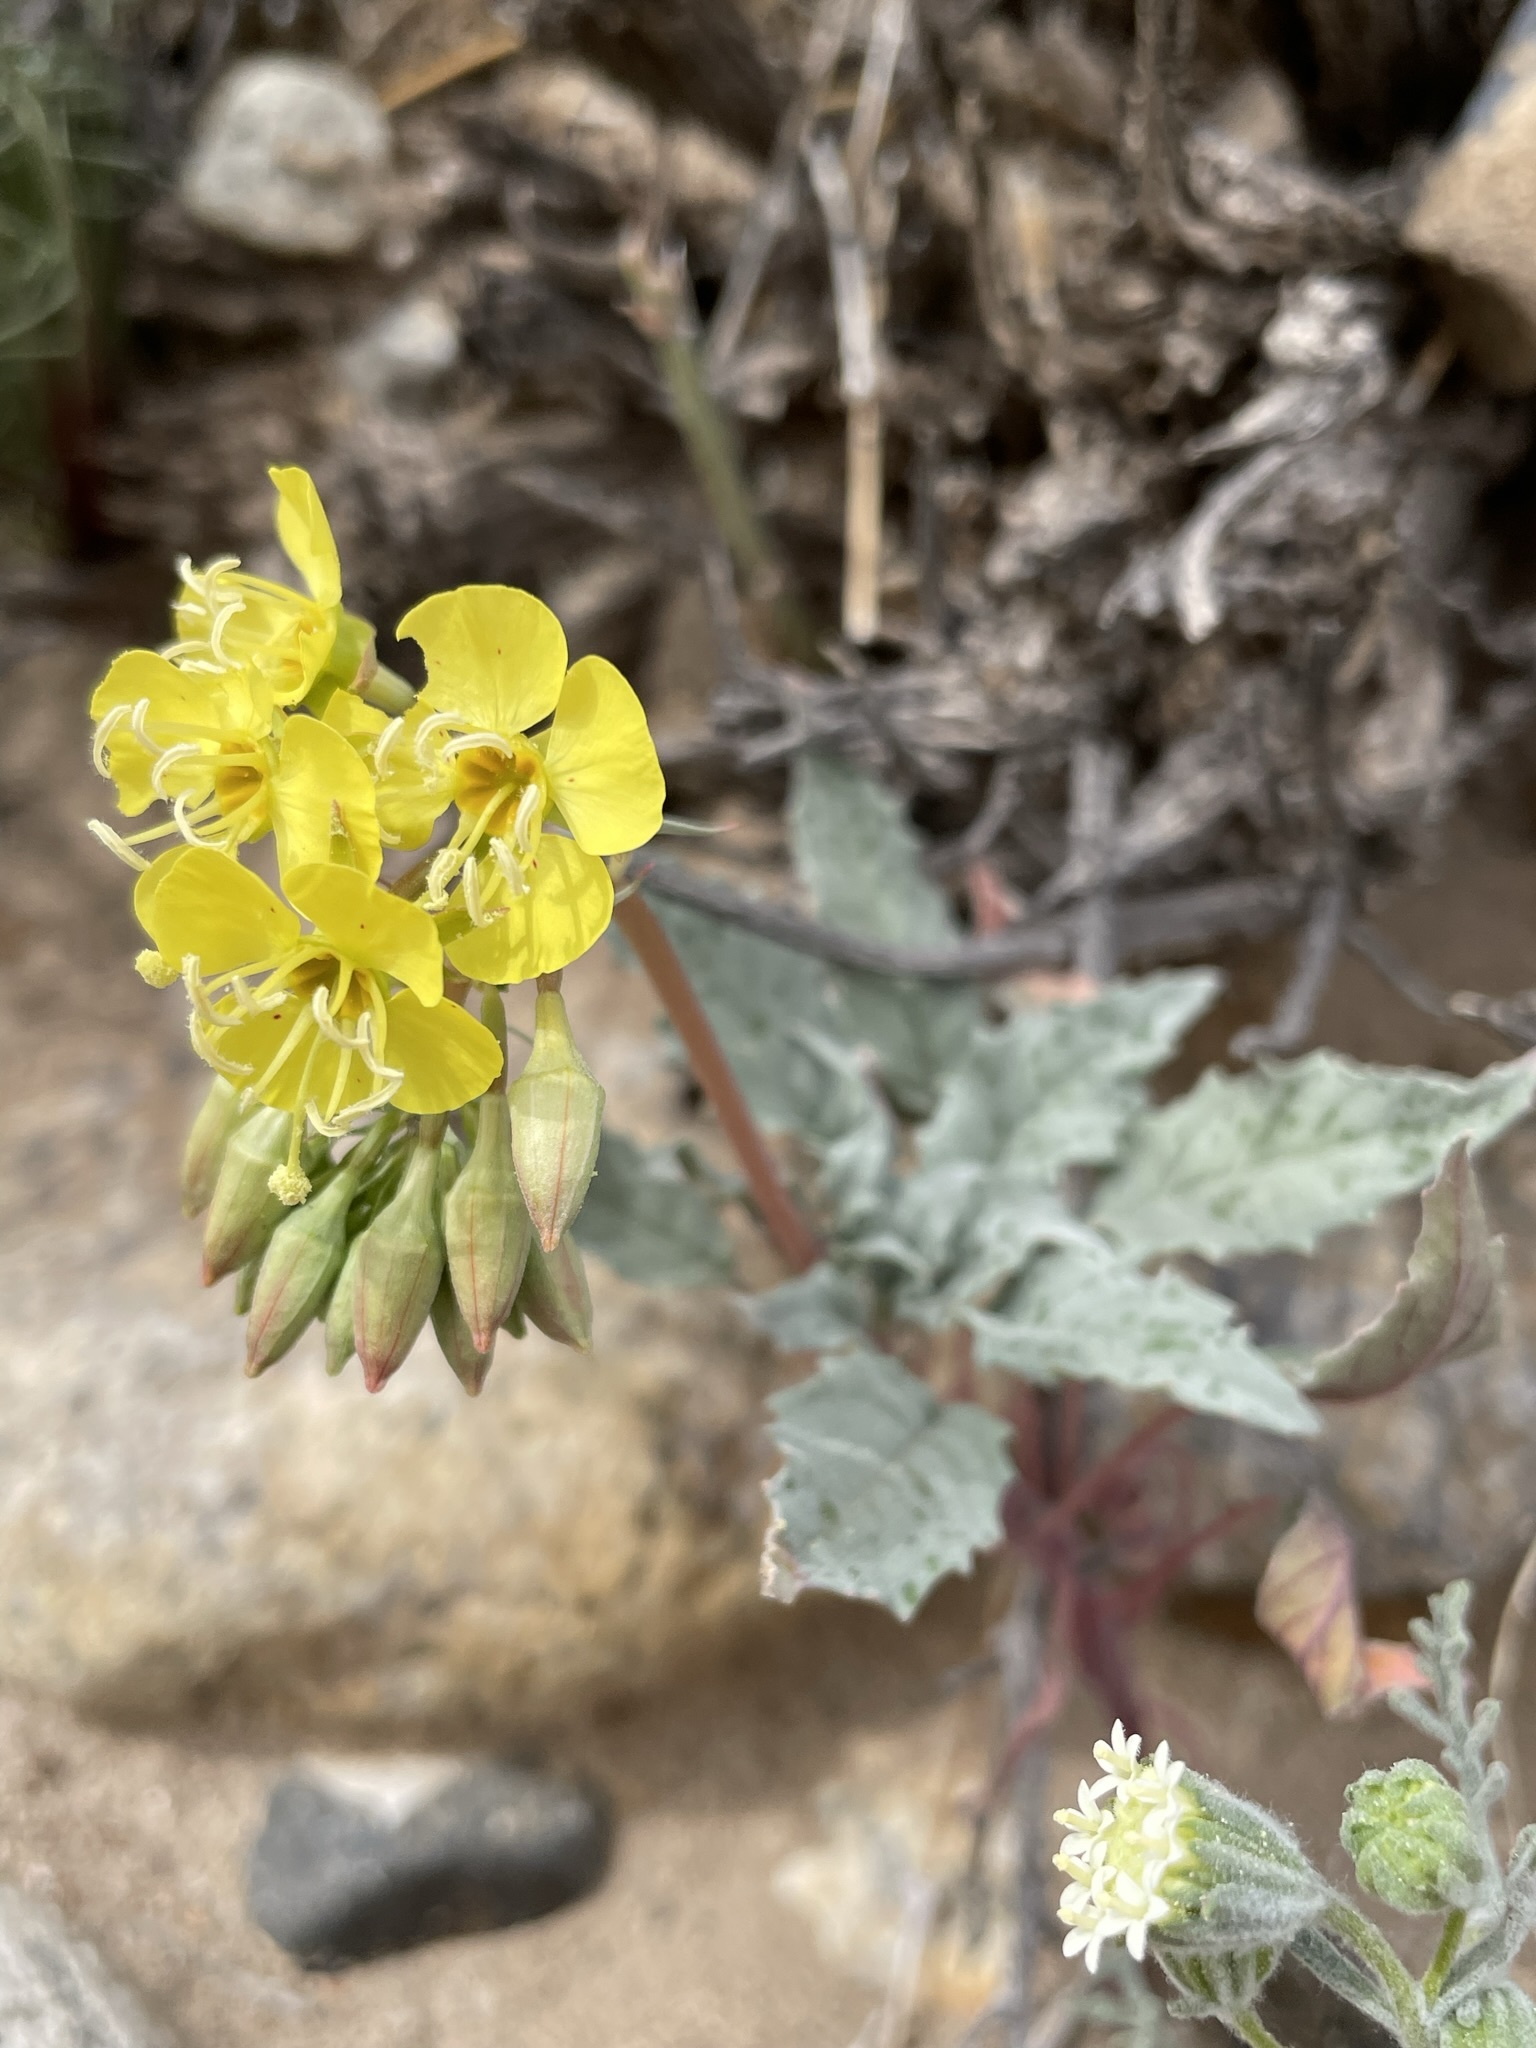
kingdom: Plantae
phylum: Tracheophyta
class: Magnoliopsida
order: Myrtales
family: Onagraceae
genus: Chylismia
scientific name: Chylismia claviformis
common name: Browneyes
